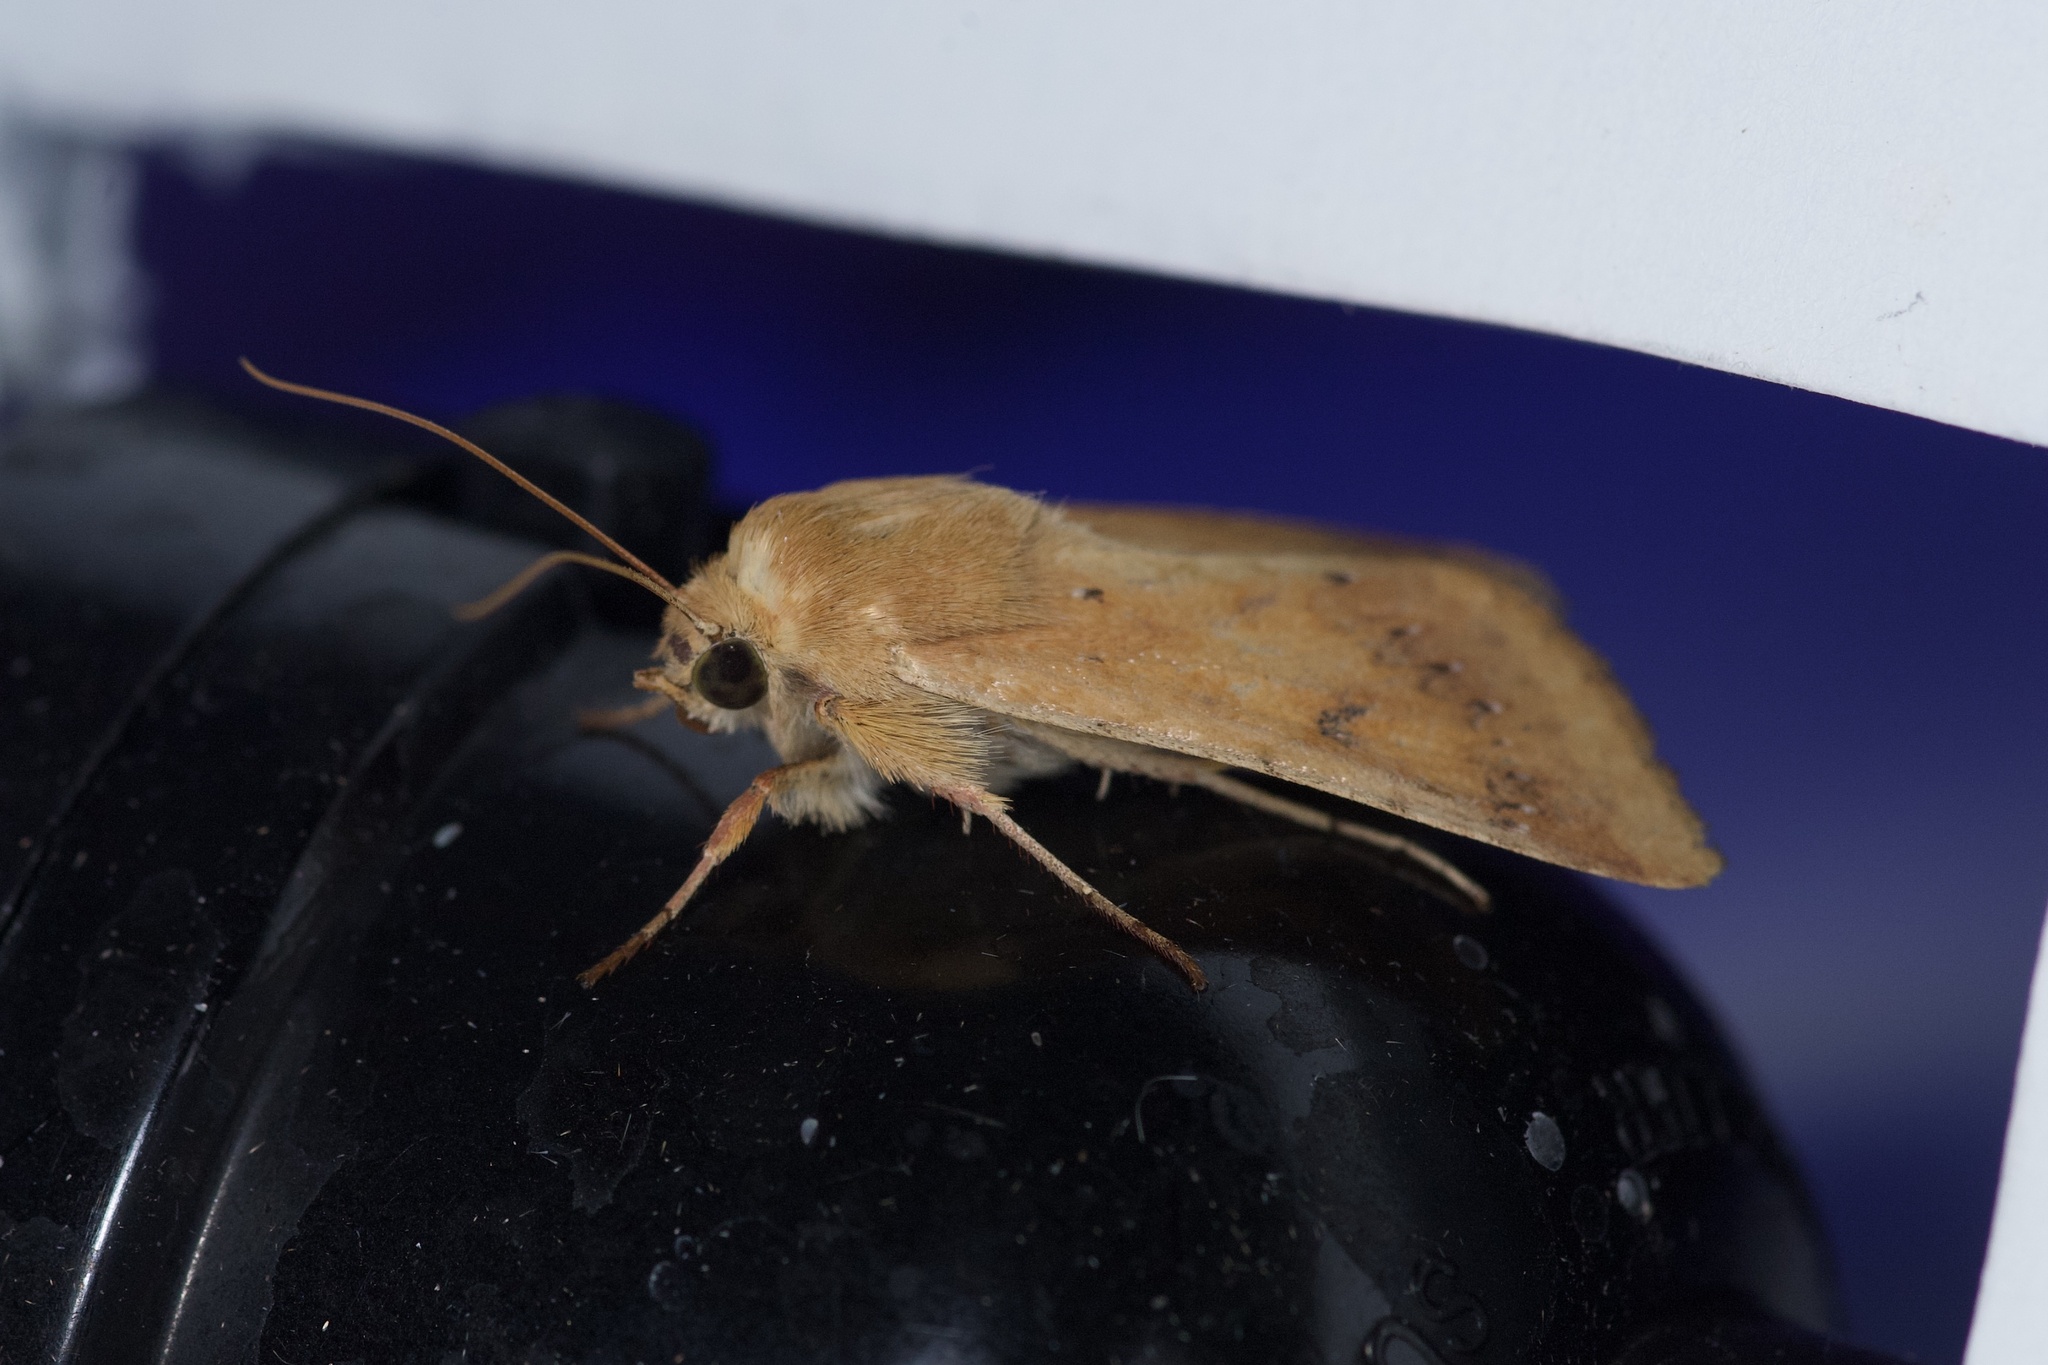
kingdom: Animalia
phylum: Arthropoda
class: Insecta
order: Lepidoptera
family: Noctuidae
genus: Helicoverpa
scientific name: Helicoverpa zea
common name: Bollworm
